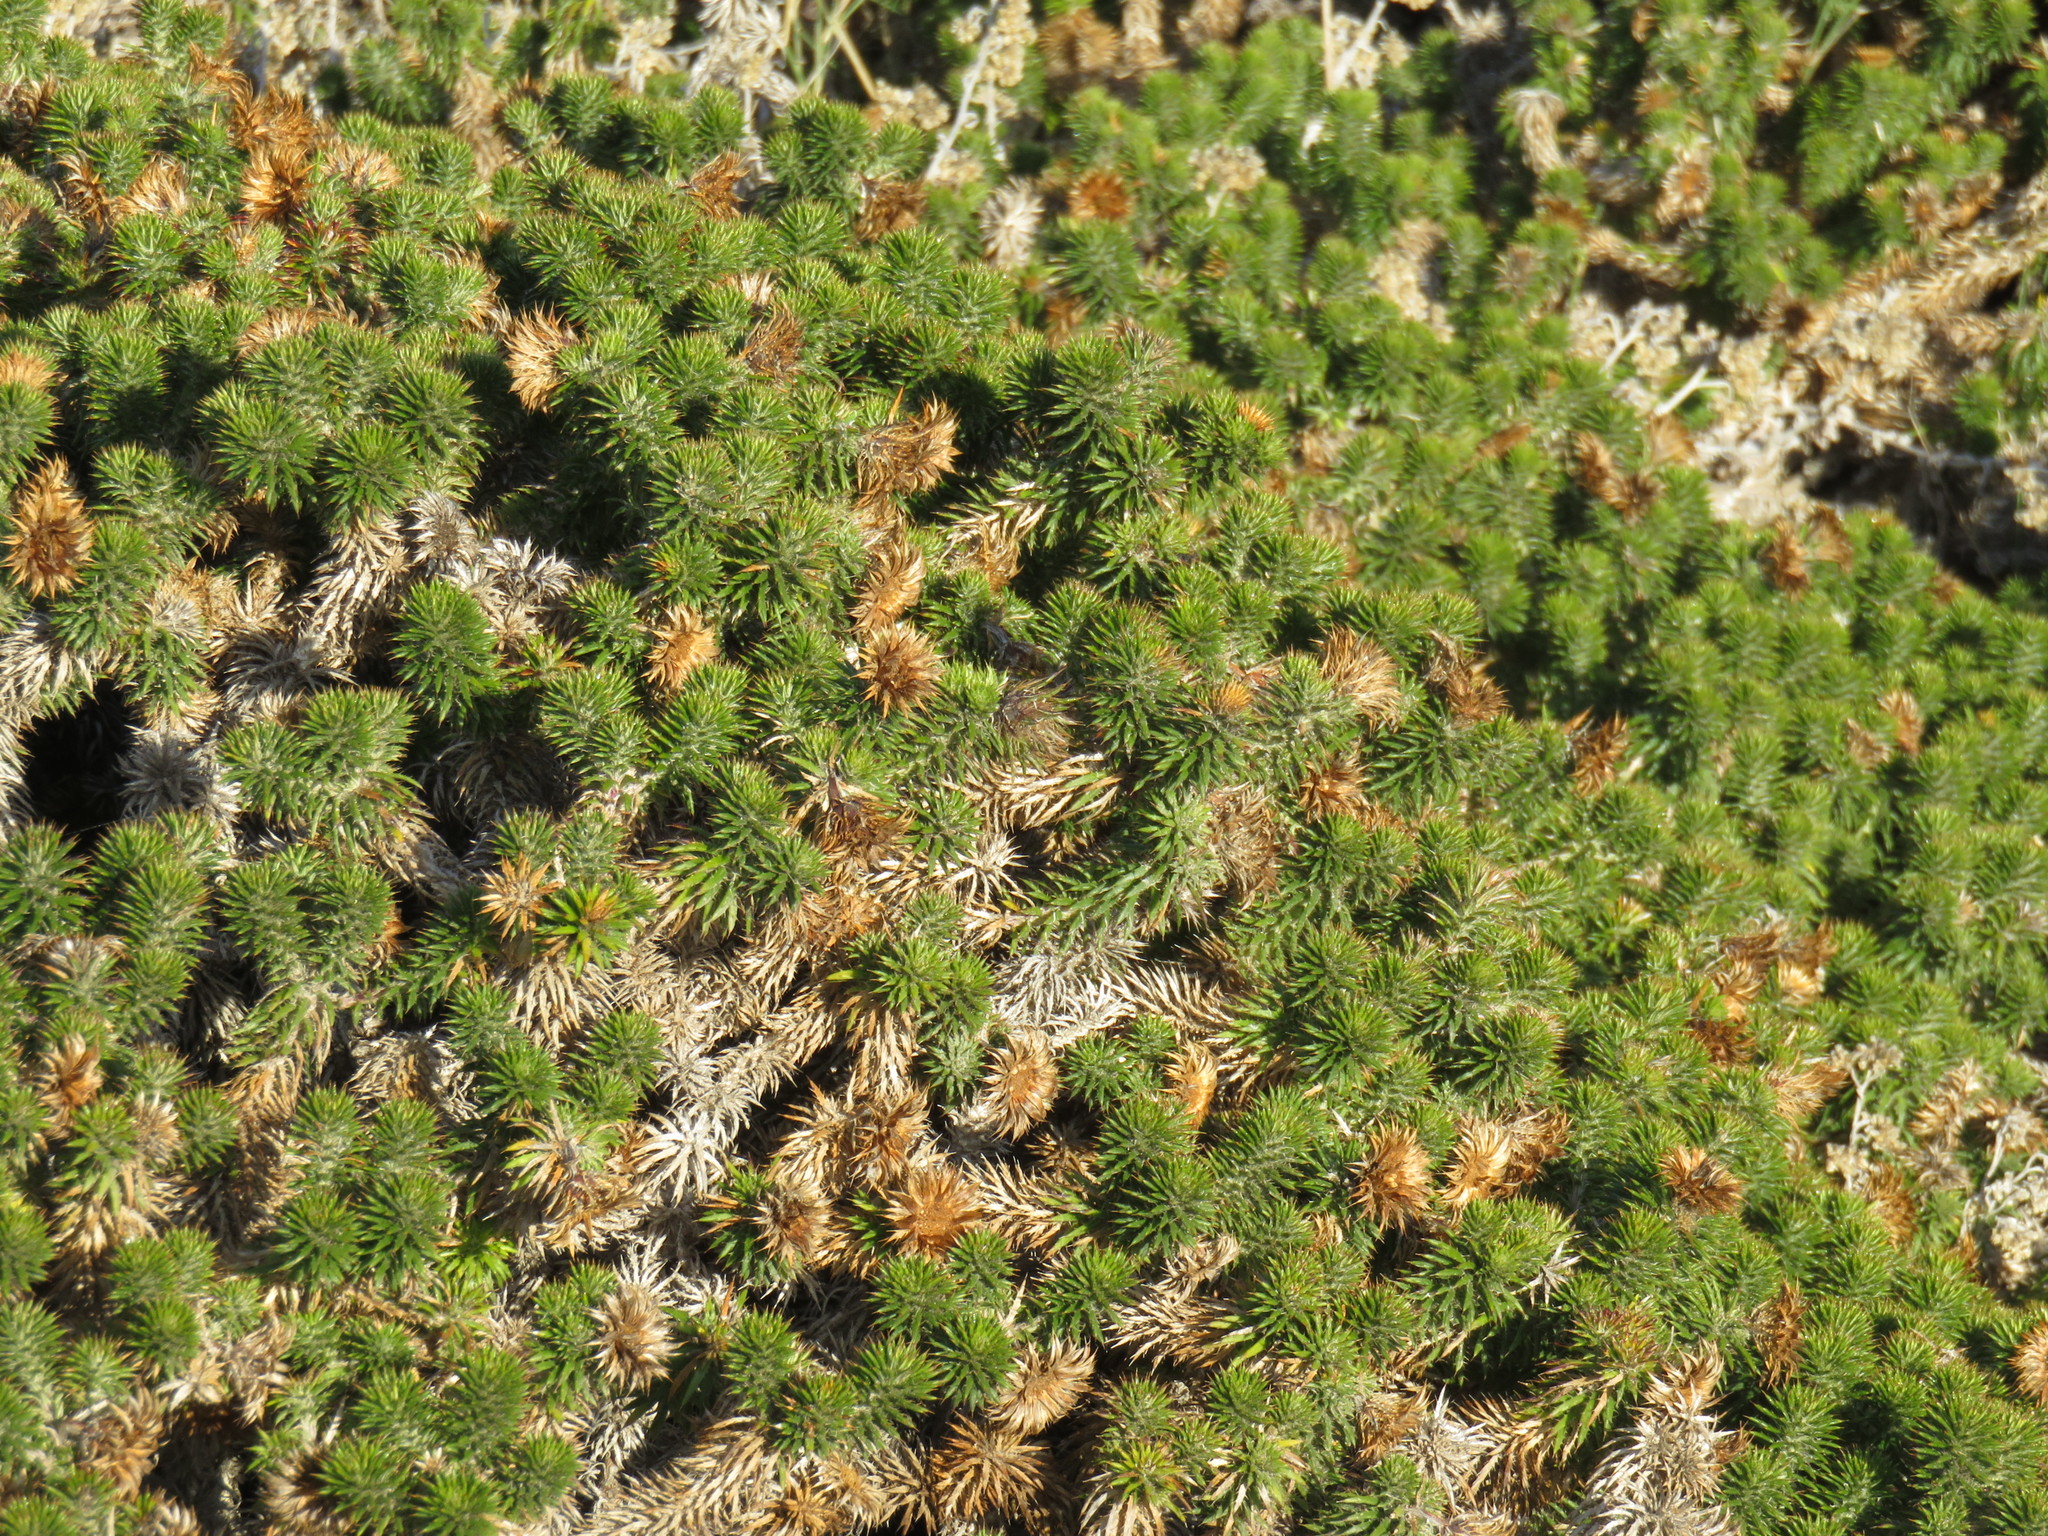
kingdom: Plantae
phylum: Tracheophyta
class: Magnoliopsida
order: Asterales
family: Asteraceae
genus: Cullumia
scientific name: Cullumia squarrosa
